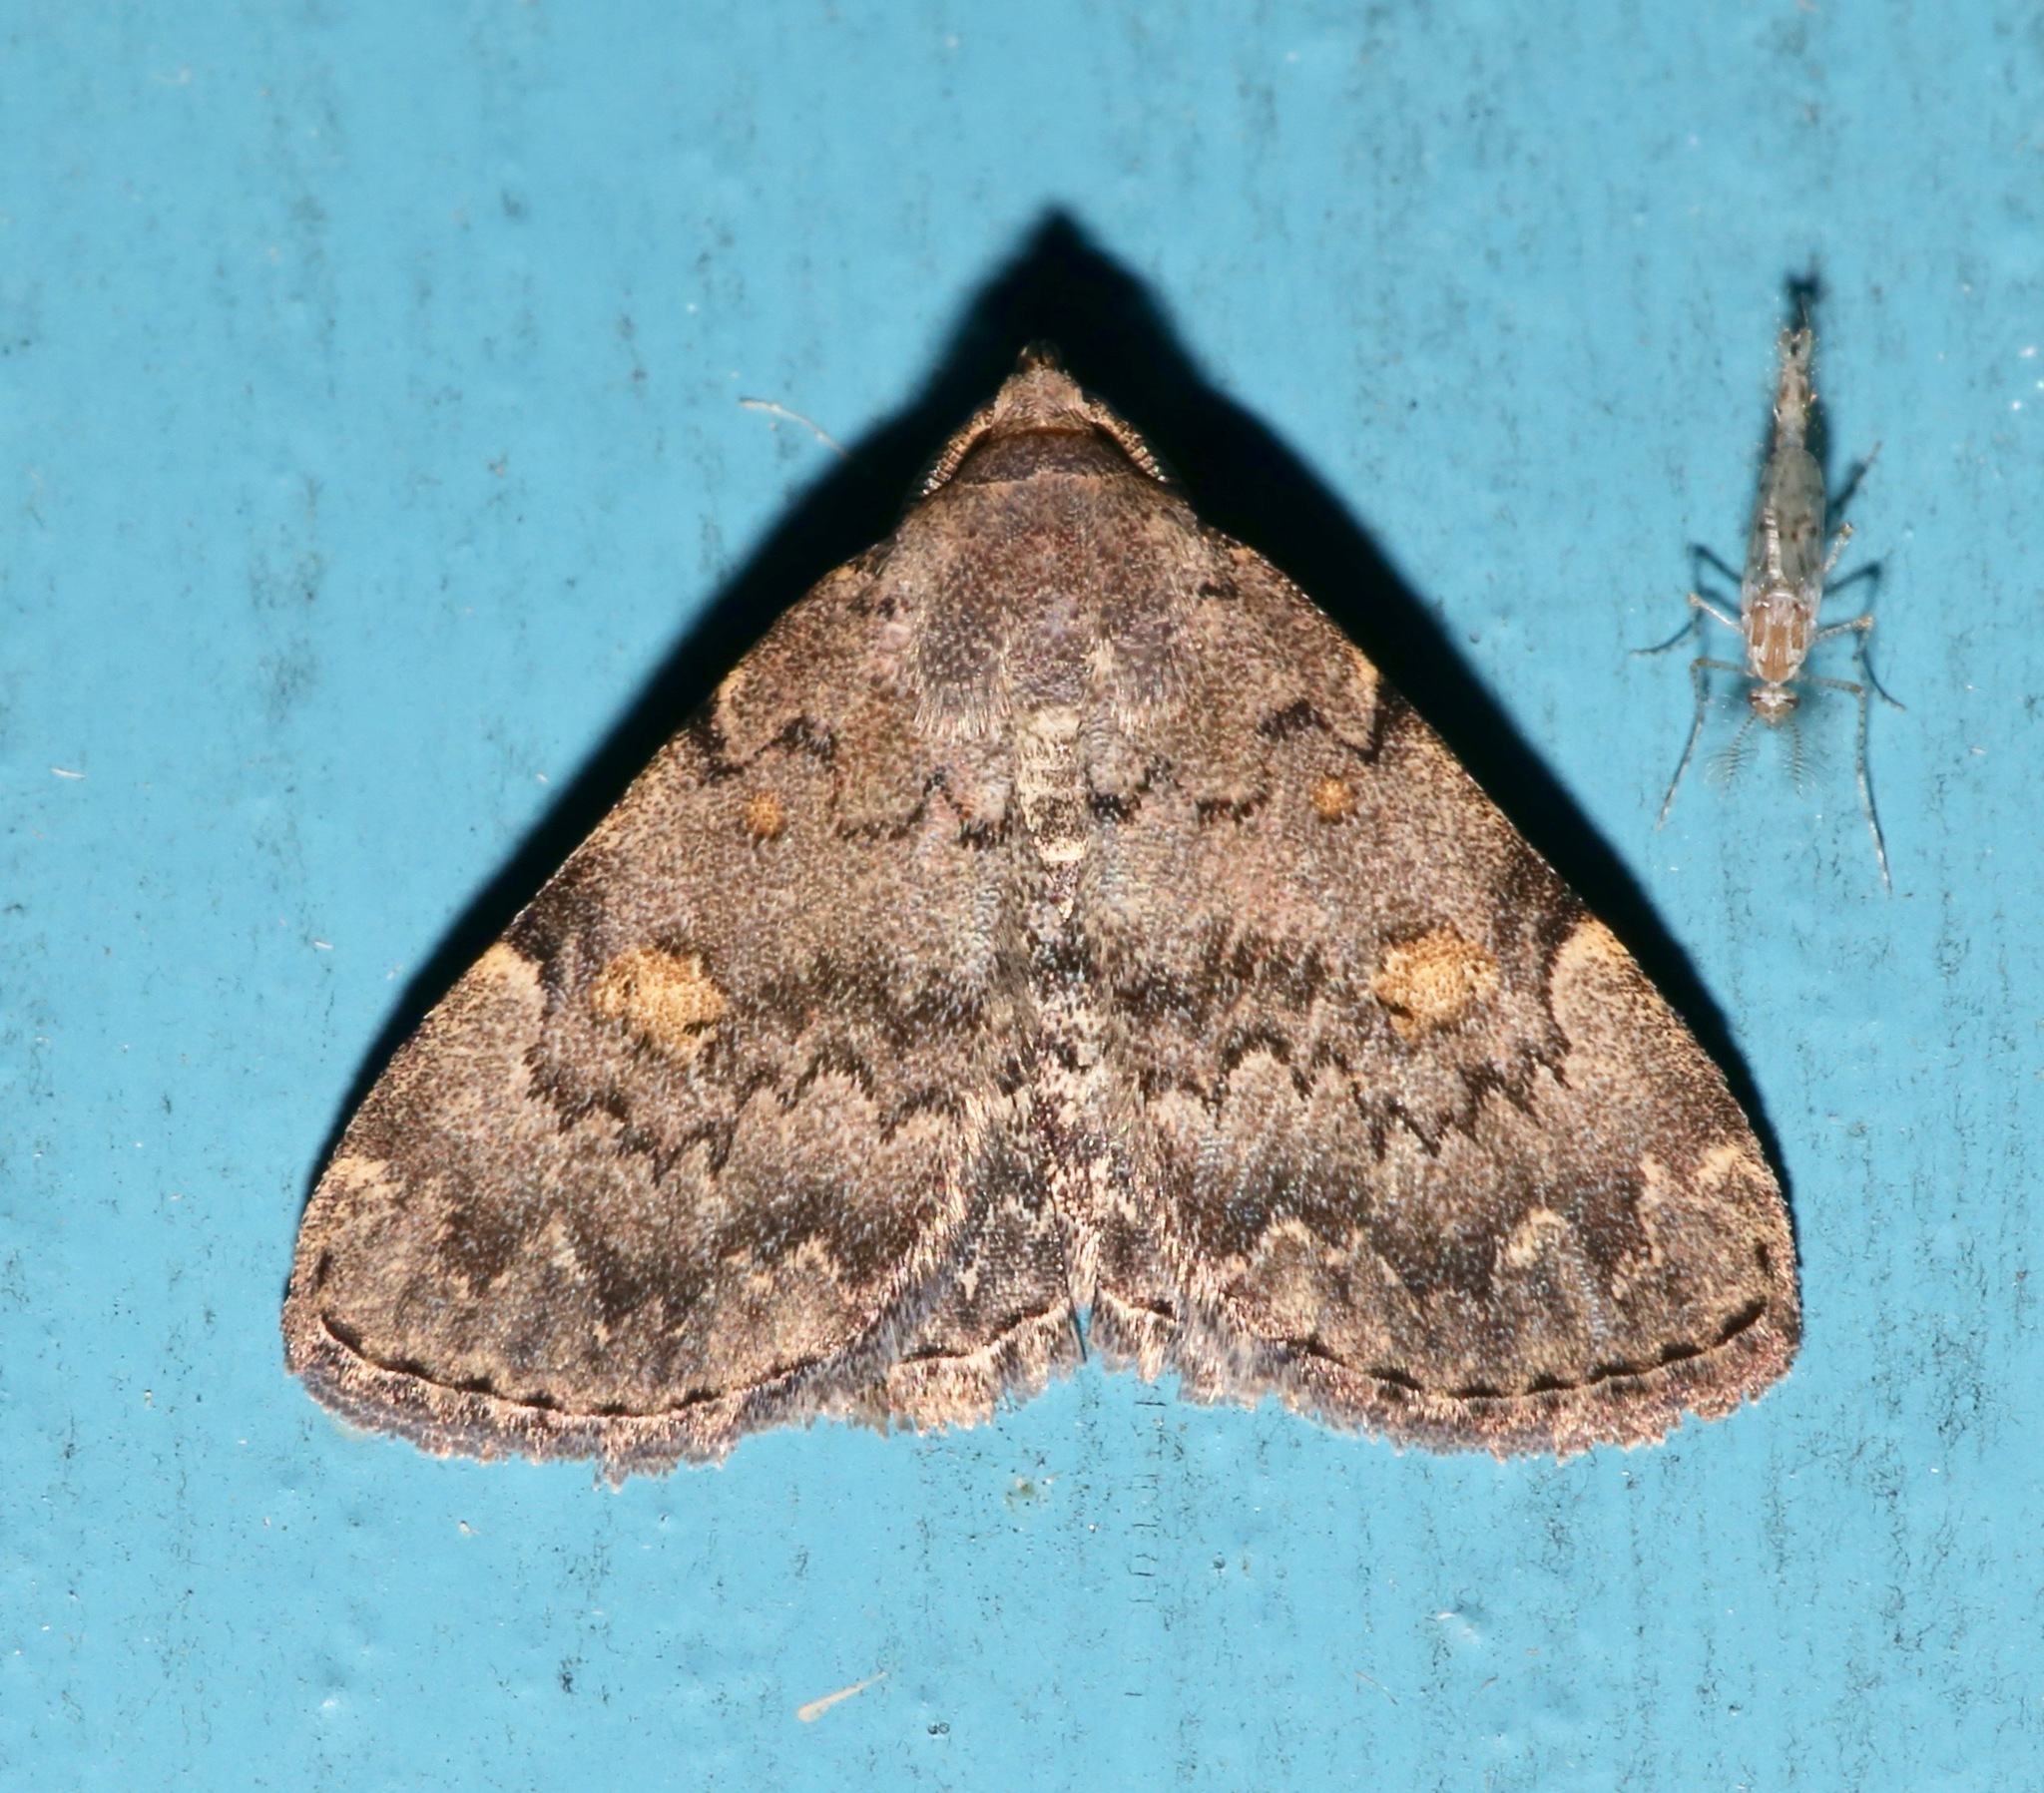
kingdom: Animalia
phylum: Arthropoda
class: Insecta
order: Lepidoptera
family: Erebidae
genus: Idia
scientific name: Idia aemula
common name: Common idia moth
